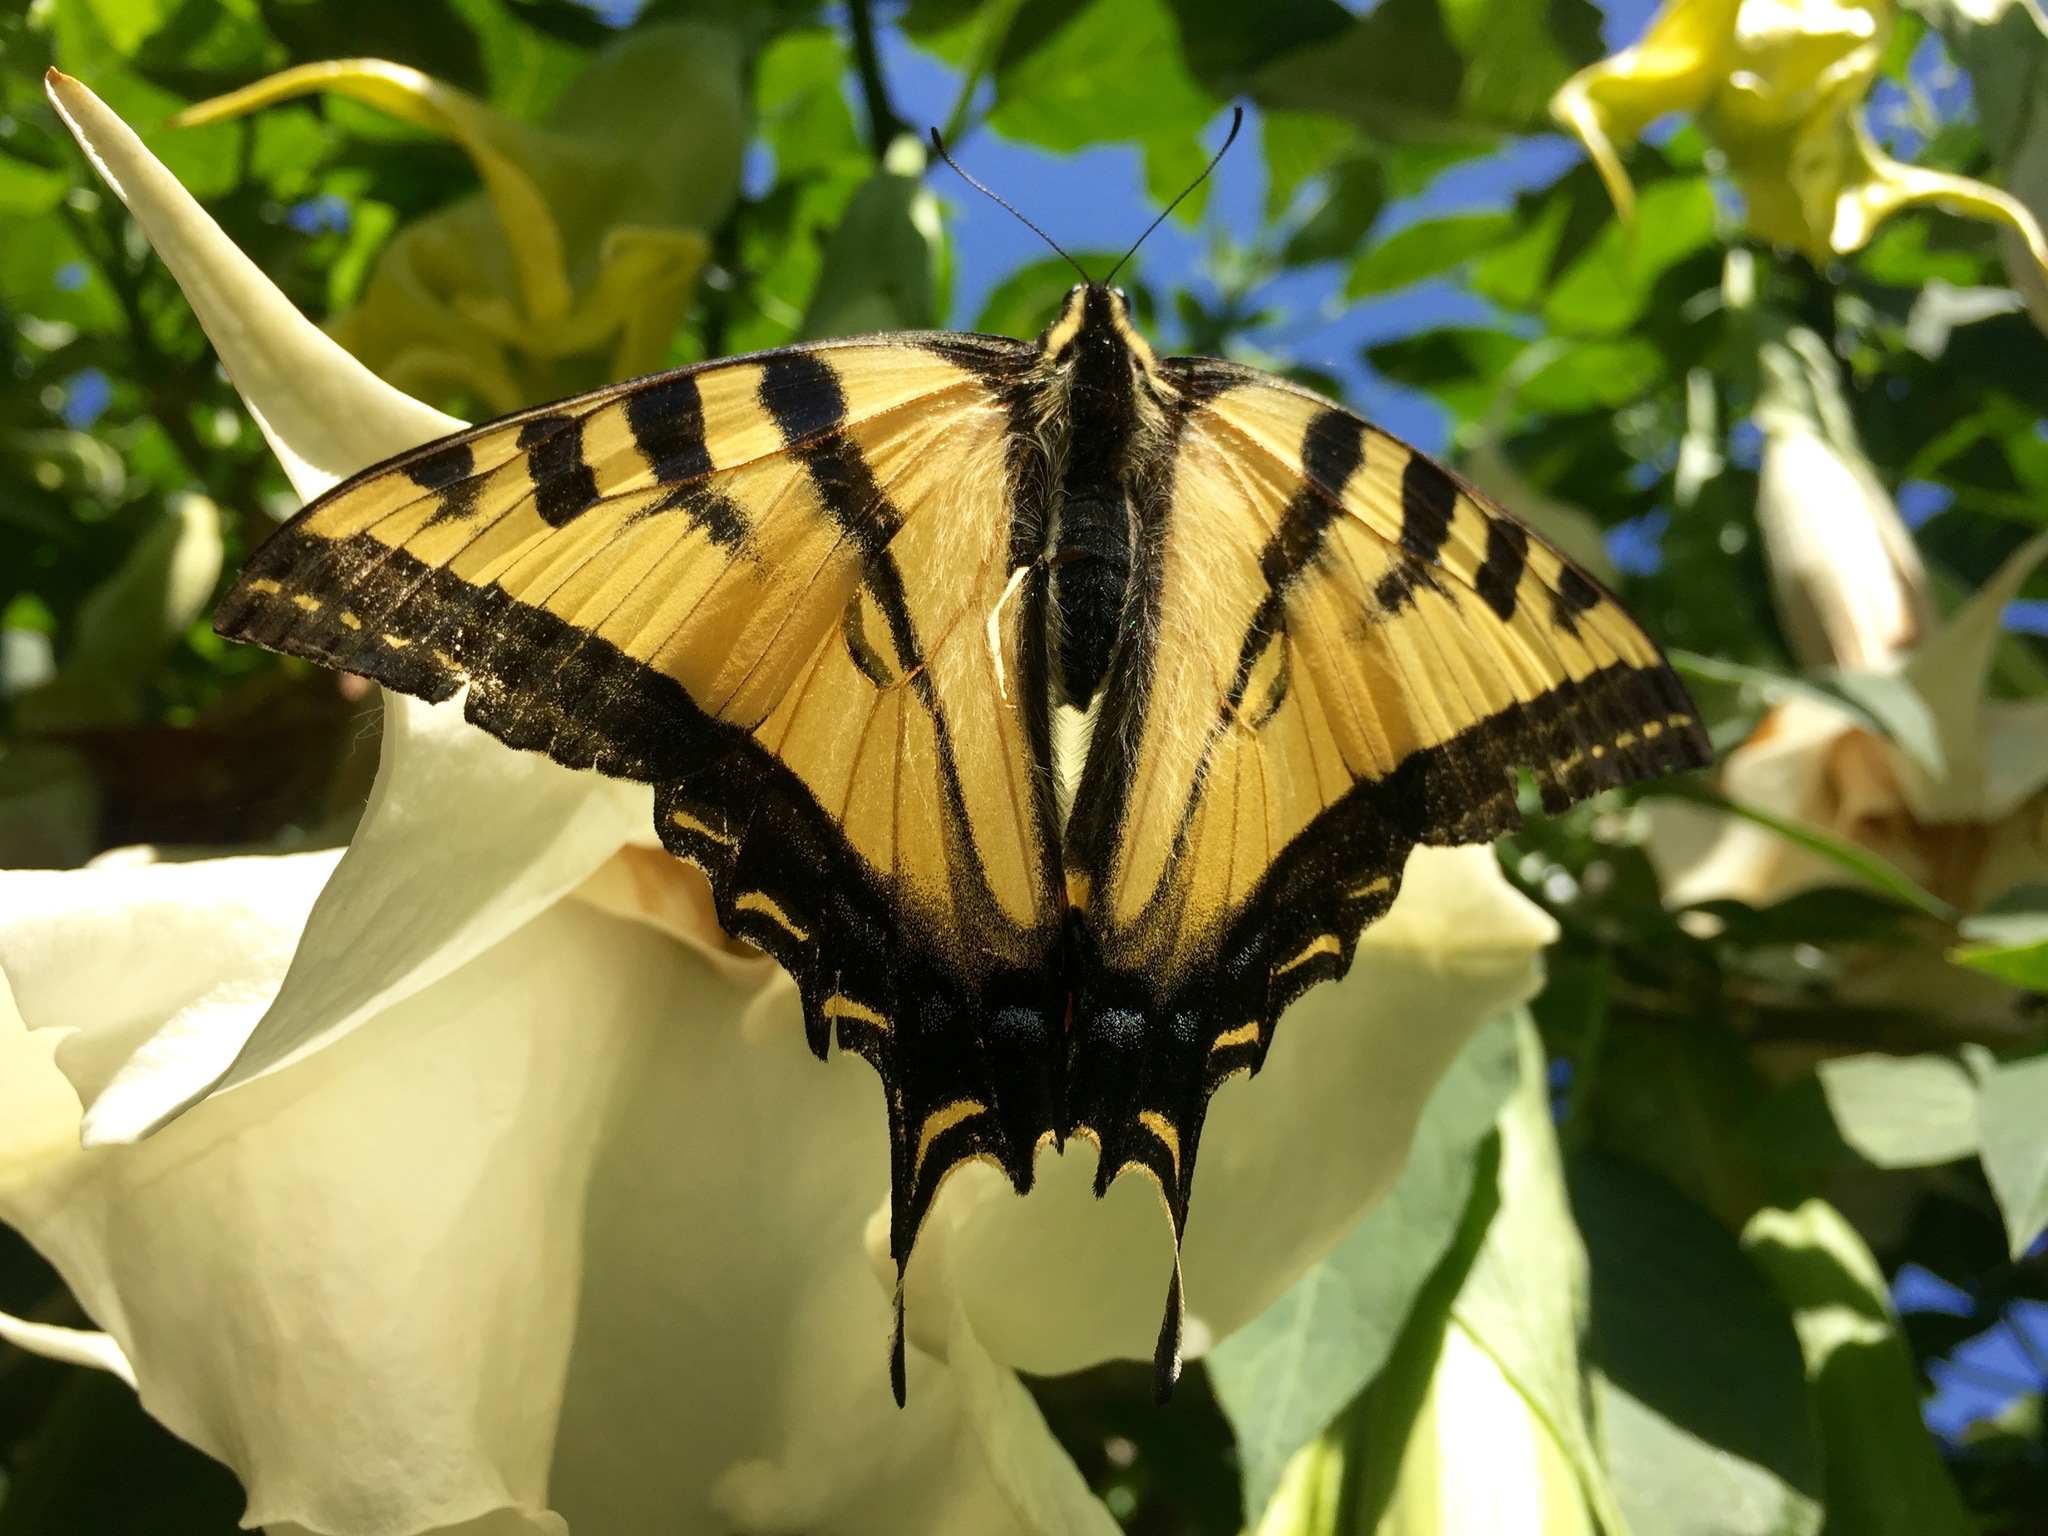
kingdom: Animalia
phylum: Arthropoda
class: Insecta
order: Lepidoptera
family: Papilionidae
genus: Papilio
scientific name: Papilio rutulus
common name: Western tiger swallowtail
